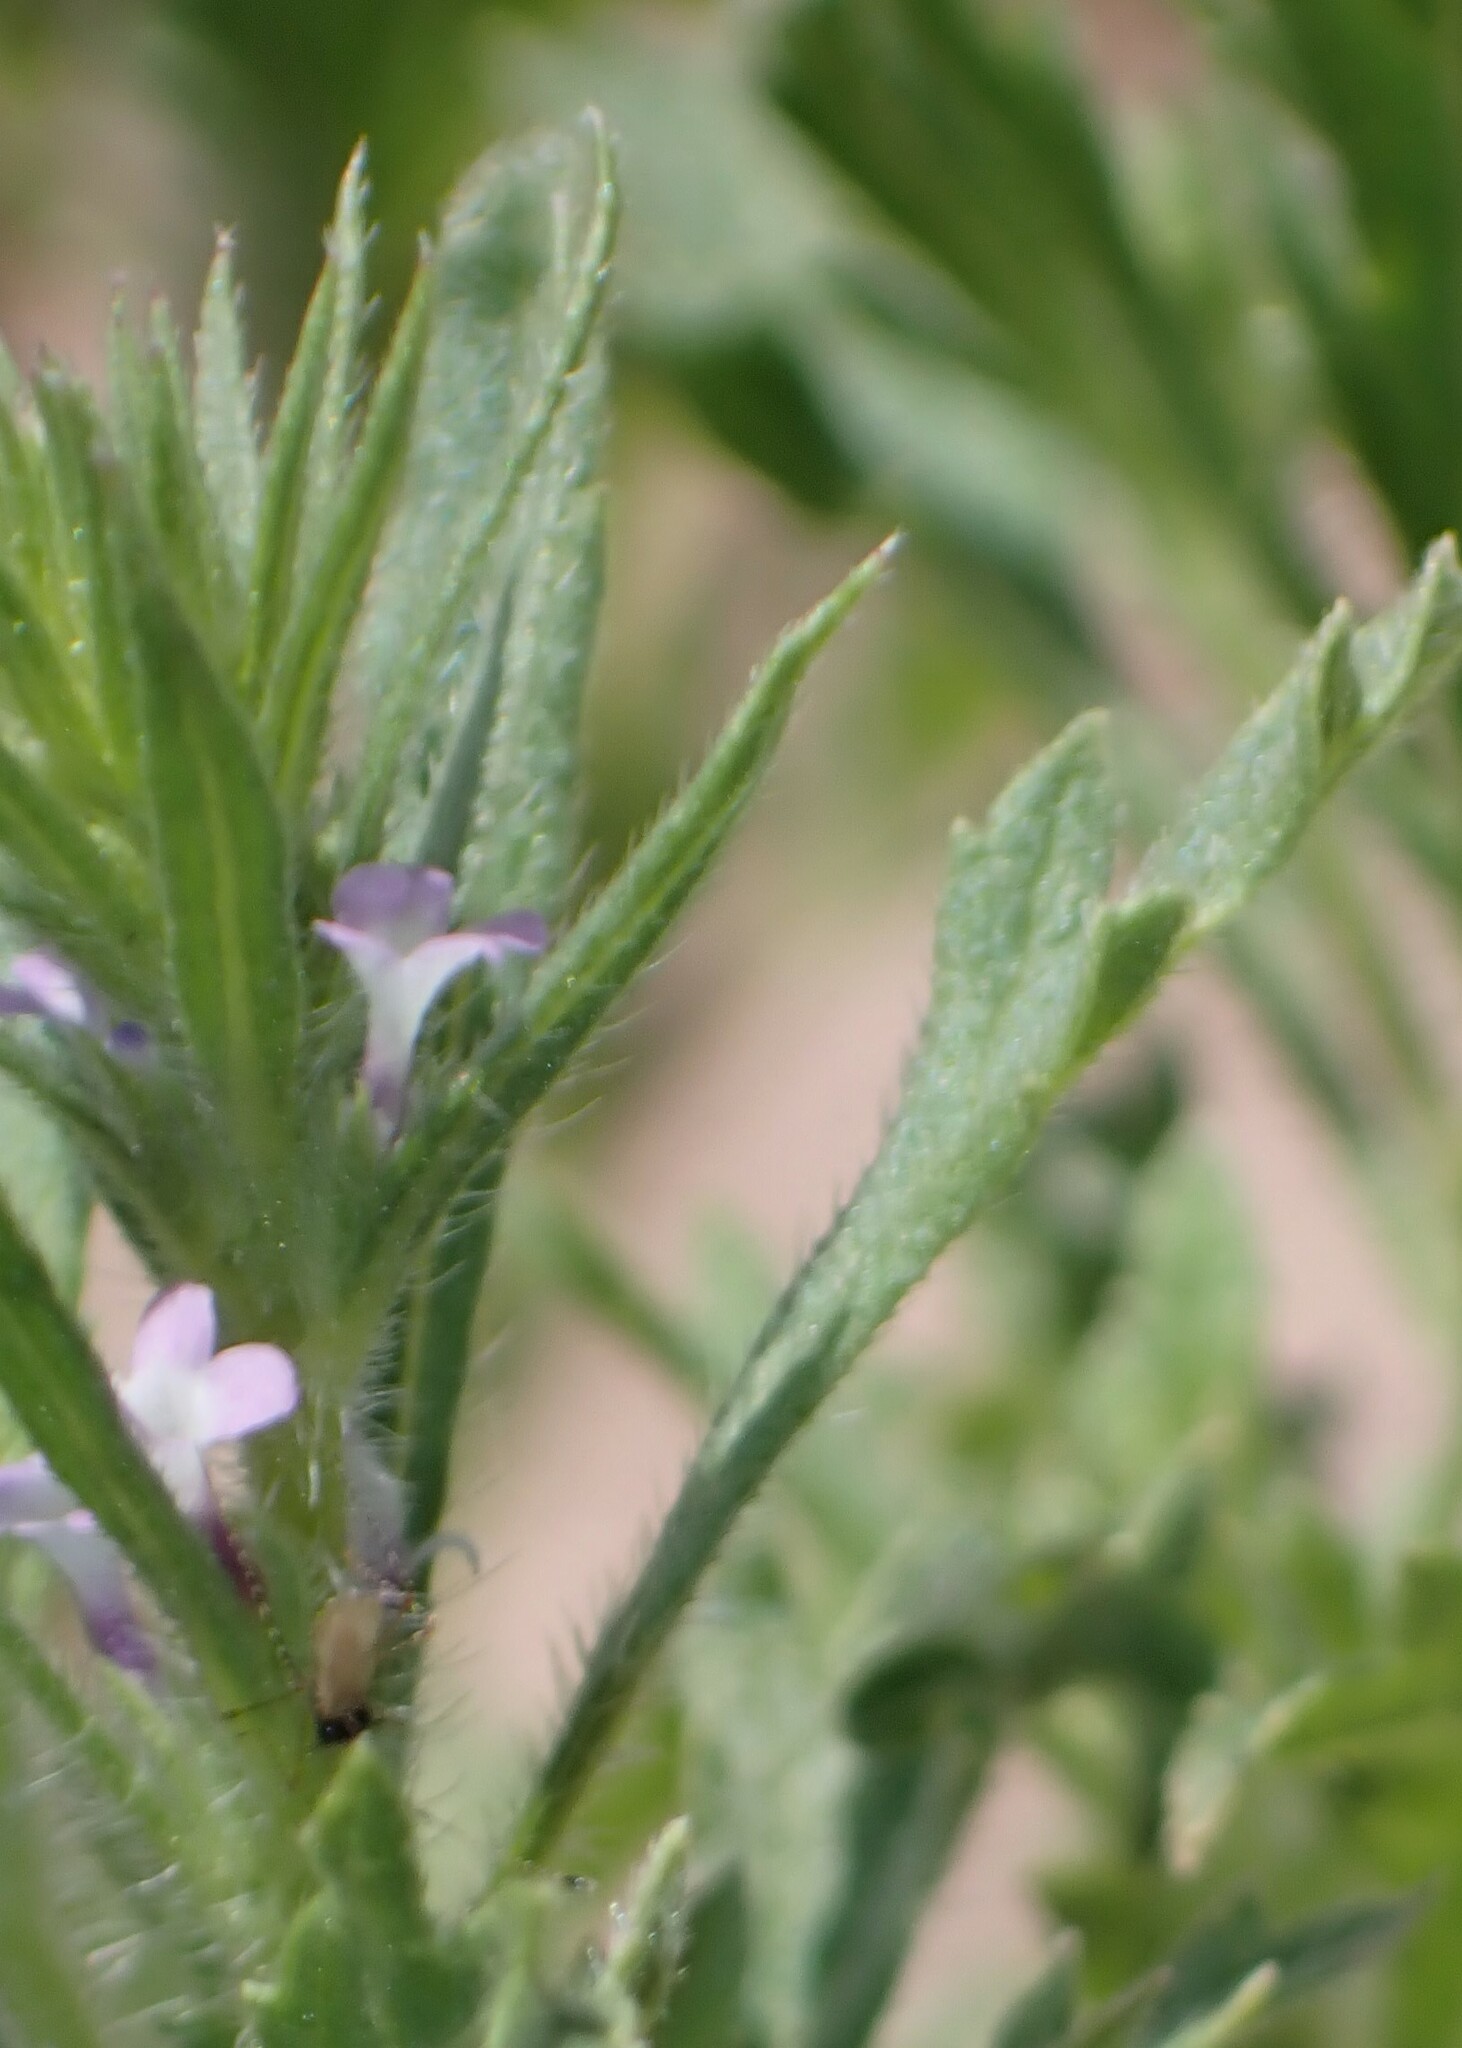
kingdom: Plantae
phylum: Tracheophyta
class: Magnoliopsida
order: Lamiales
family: Verbenaceae
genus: Verbena
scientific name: Verbena bracteata
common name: Bracted vervain
